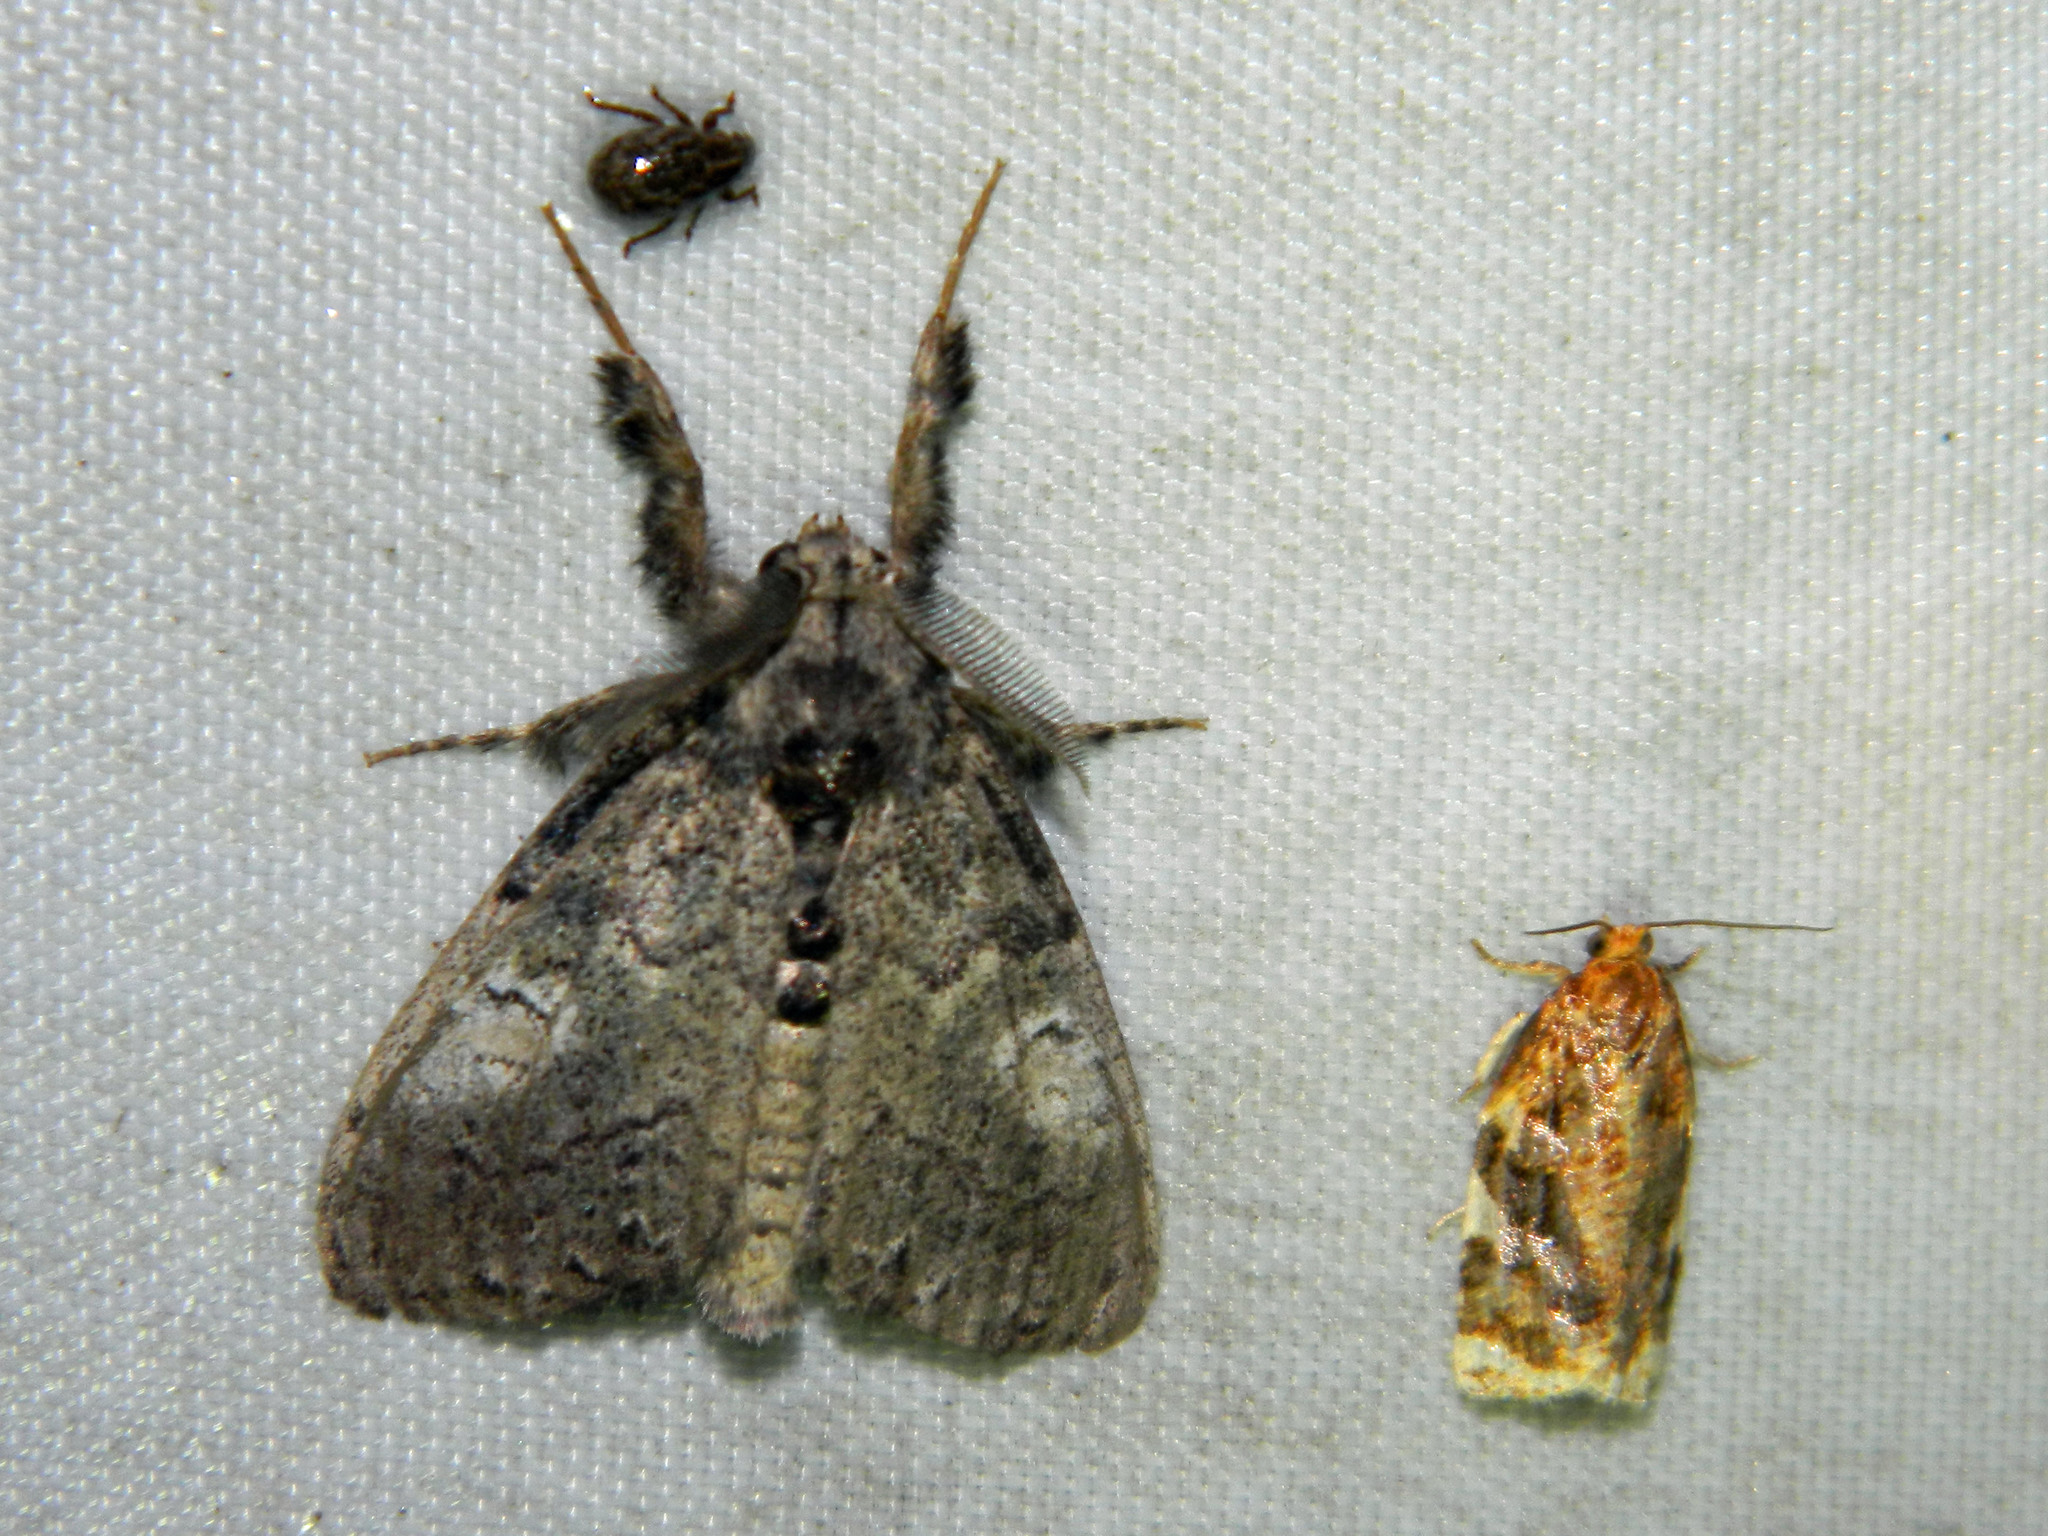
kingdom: Animalia
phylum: Arthropoda
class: Insecta
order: Lepidoptera
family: Erebidae
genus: Dasychira
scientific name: Dasychira vagans
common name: Variable tussock moth
